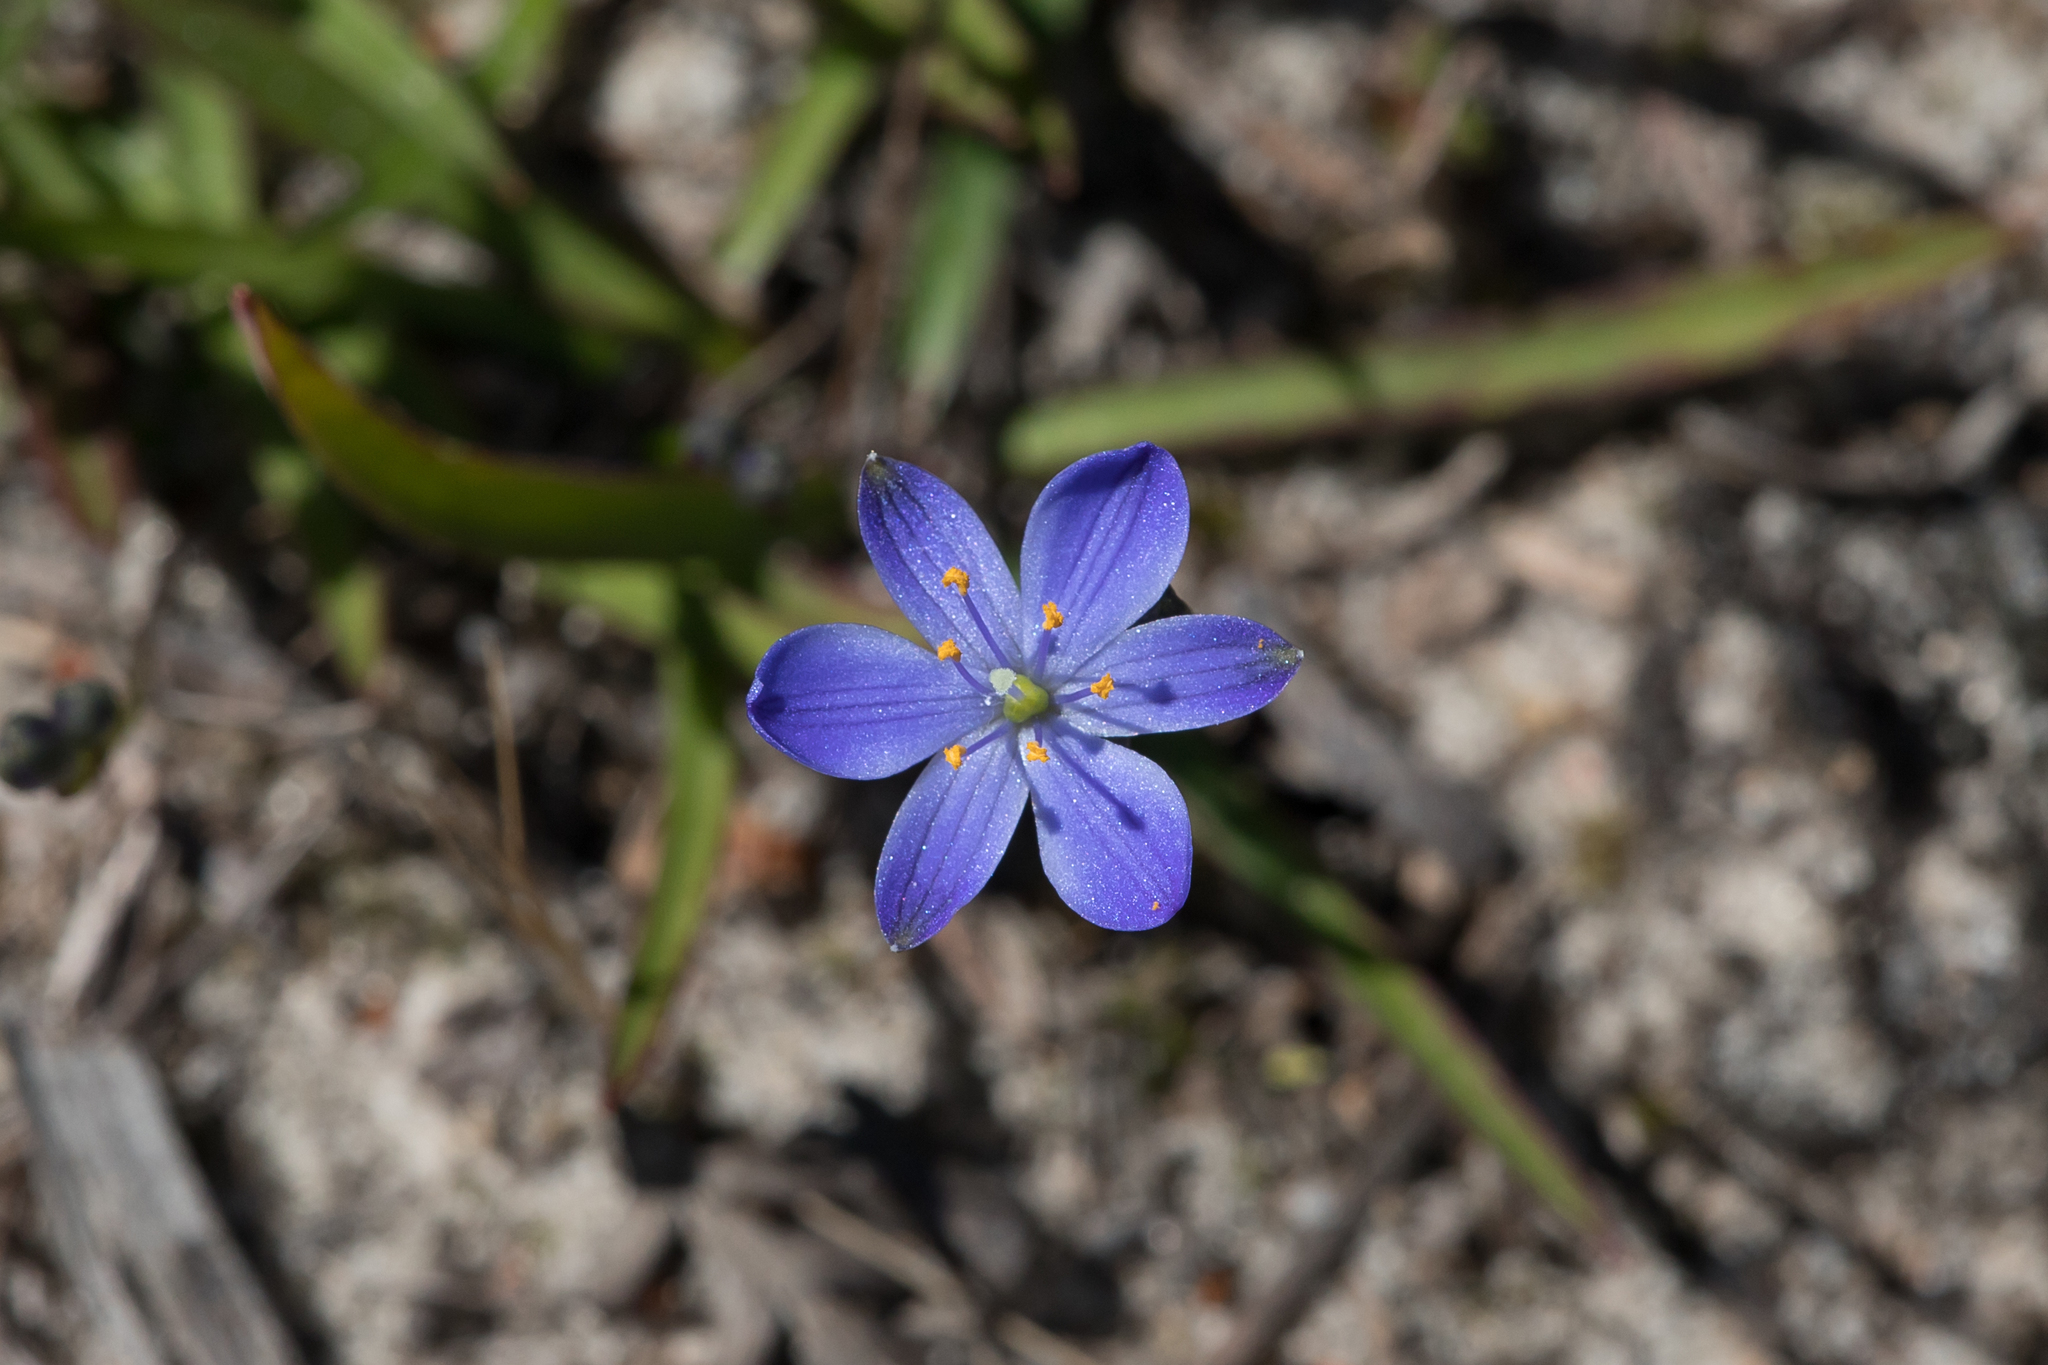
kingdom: Plantae
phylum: Tracheophyta
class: Liliopsida
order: Asparagales
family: Asphodelaceae
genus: Chamaescilla
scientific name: Chamaescilla corymbosa
